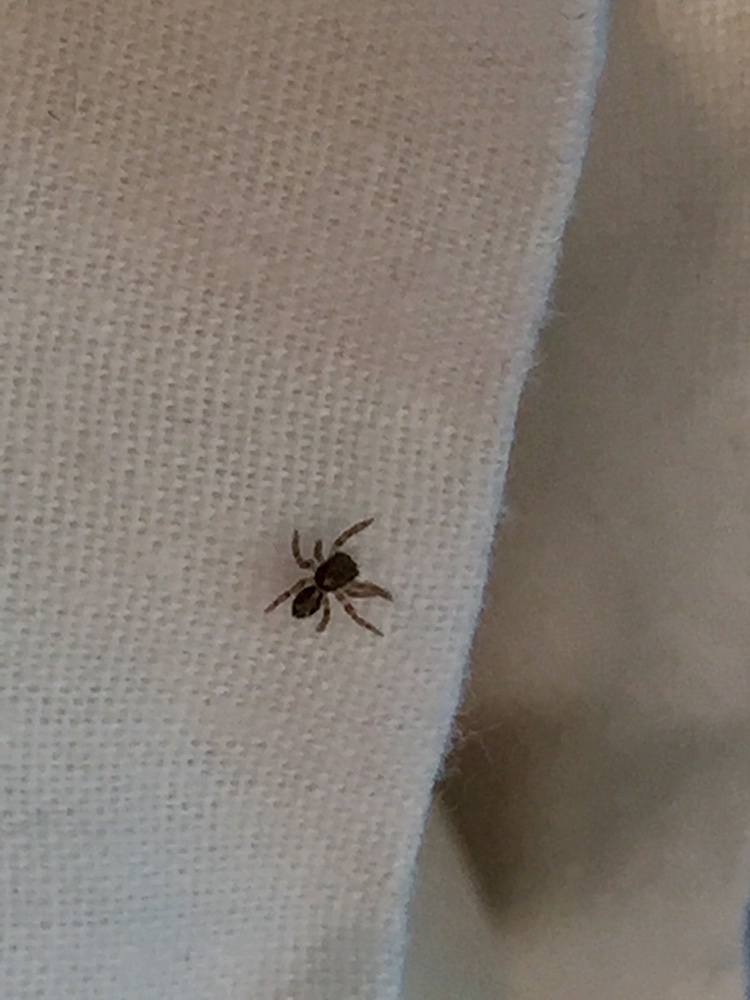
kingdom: Animalia
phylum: Arthropoda
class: Arachnida
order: Araneae
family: Salticidae
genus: Pseudeuophrys
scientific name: Pseudeuophrys lanigera
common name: Jumping spider
